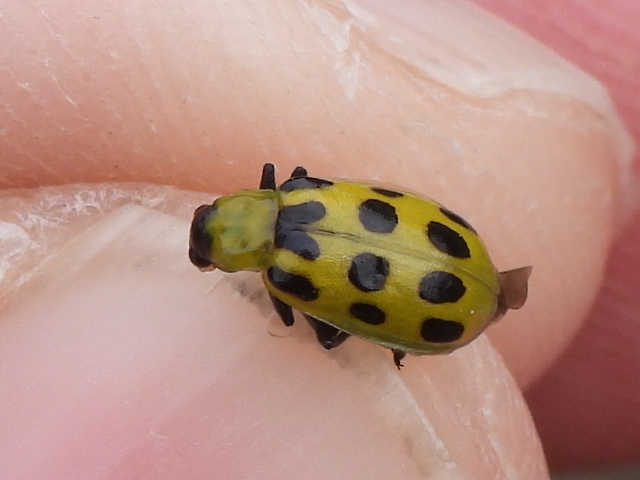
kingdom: Animalia
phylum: Arthropoda
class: Insecta
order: Coleoptera
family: Chrysomelidae
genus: Diabrotica
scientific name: Diabrotica undecimpunctata
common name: Spotted cucumber beetle
